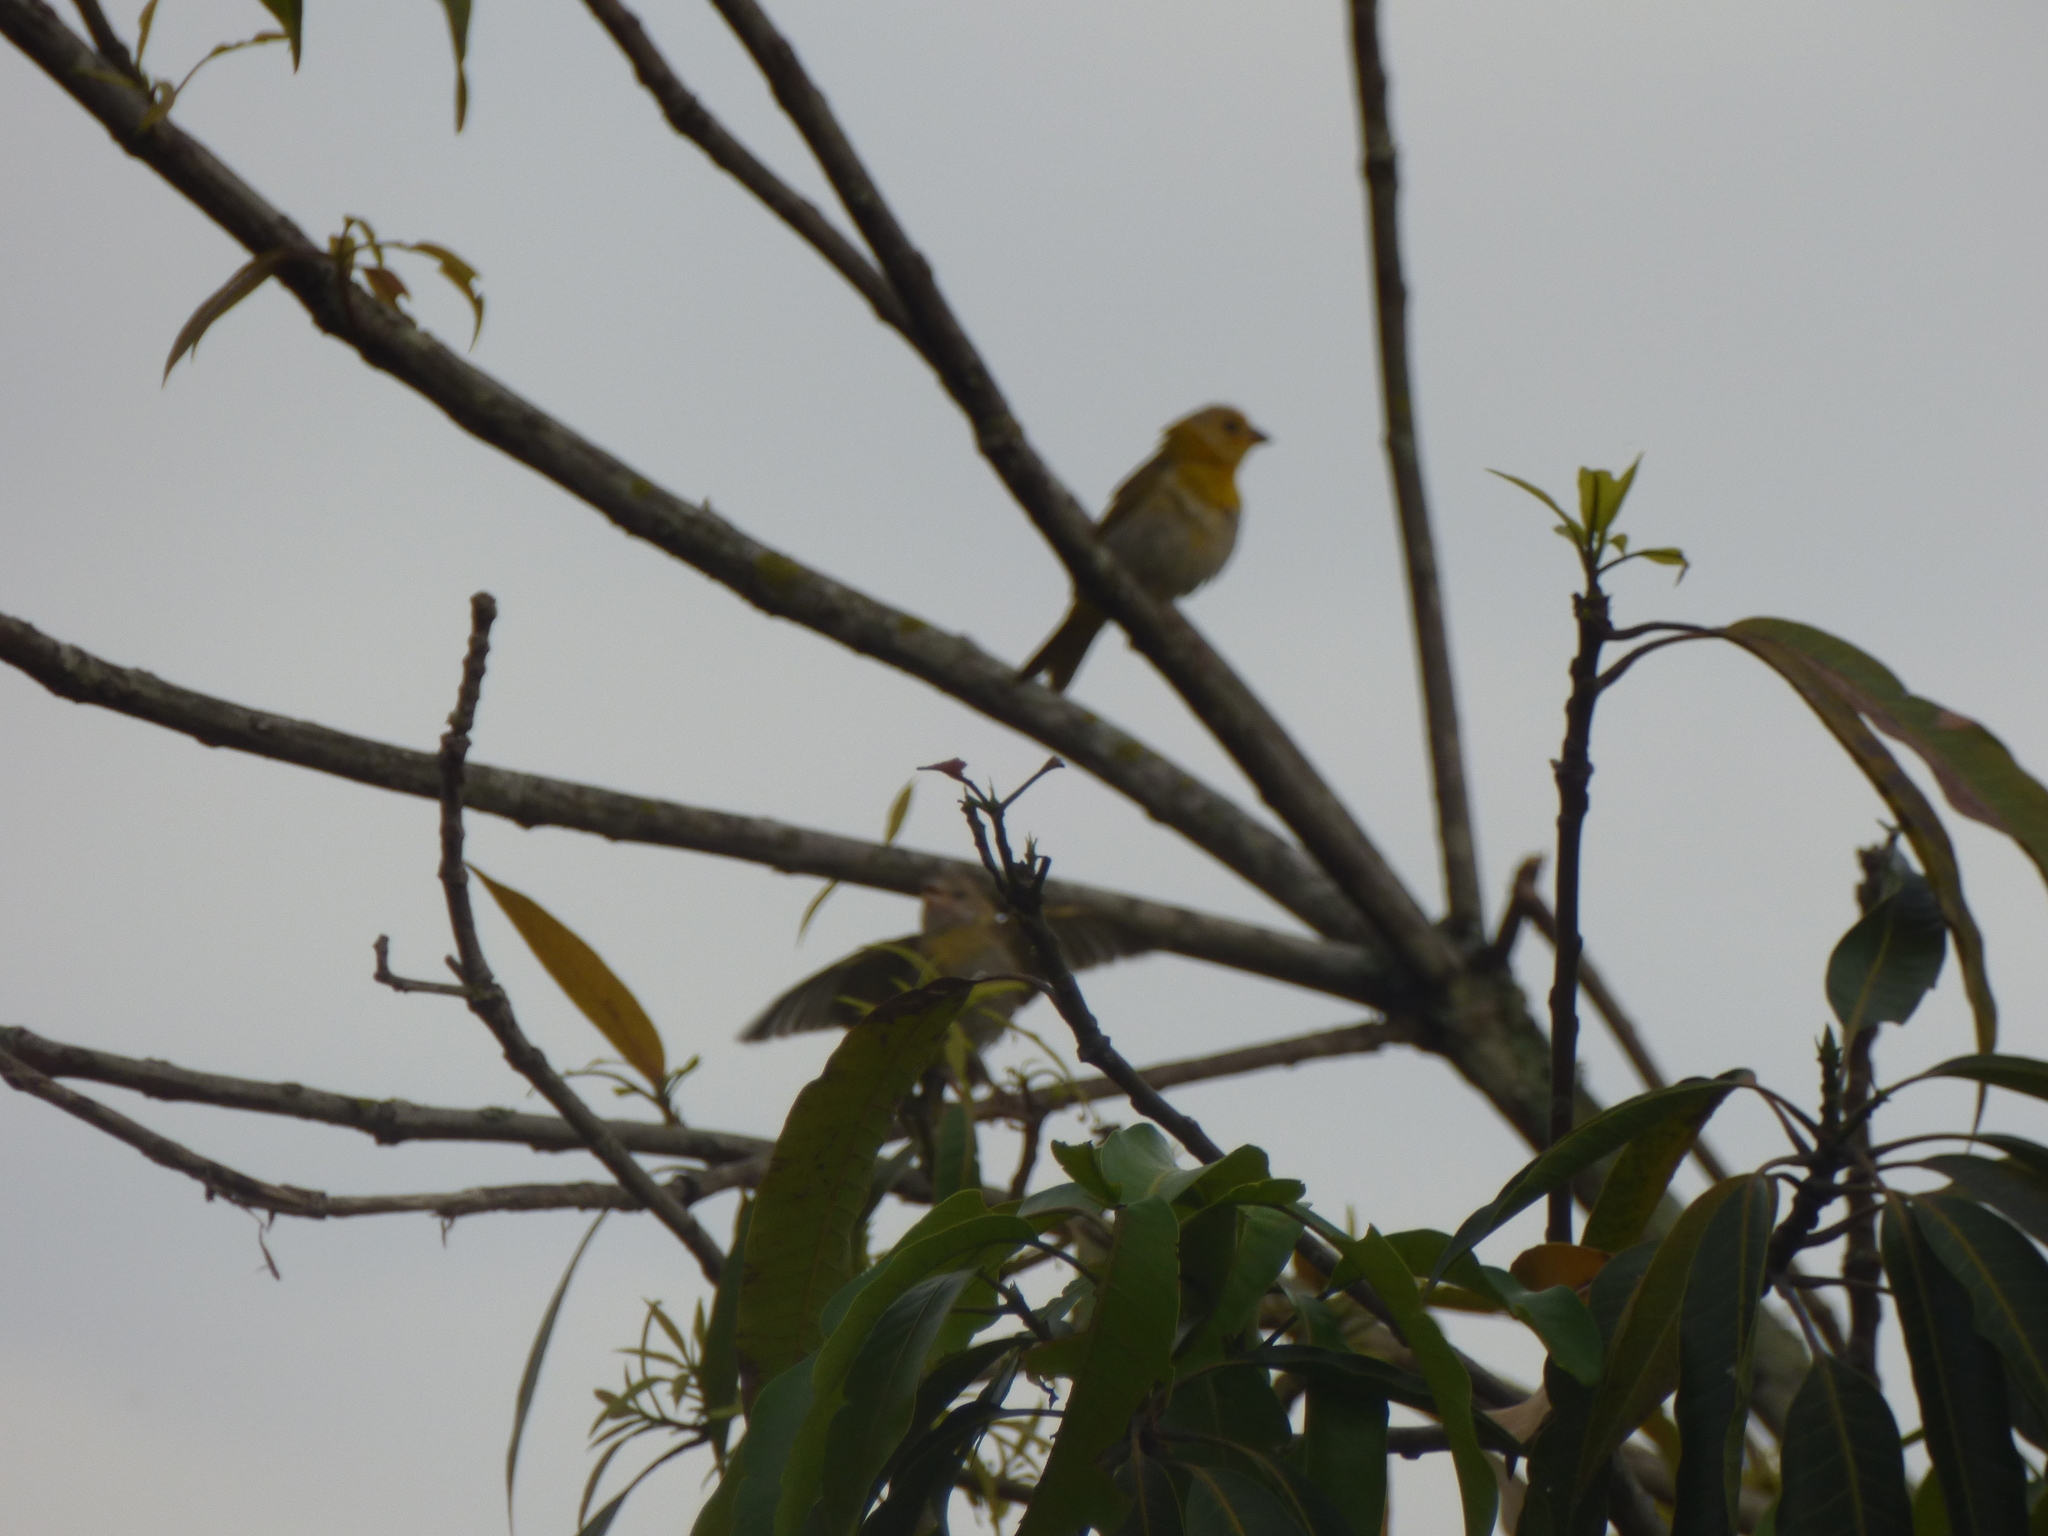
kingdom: Animalia
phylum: Chordata
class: Aves
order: Passeriformes
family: Thraupidae
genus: Sicalis
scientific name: Sicalis flaveola
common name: Saffron finch
